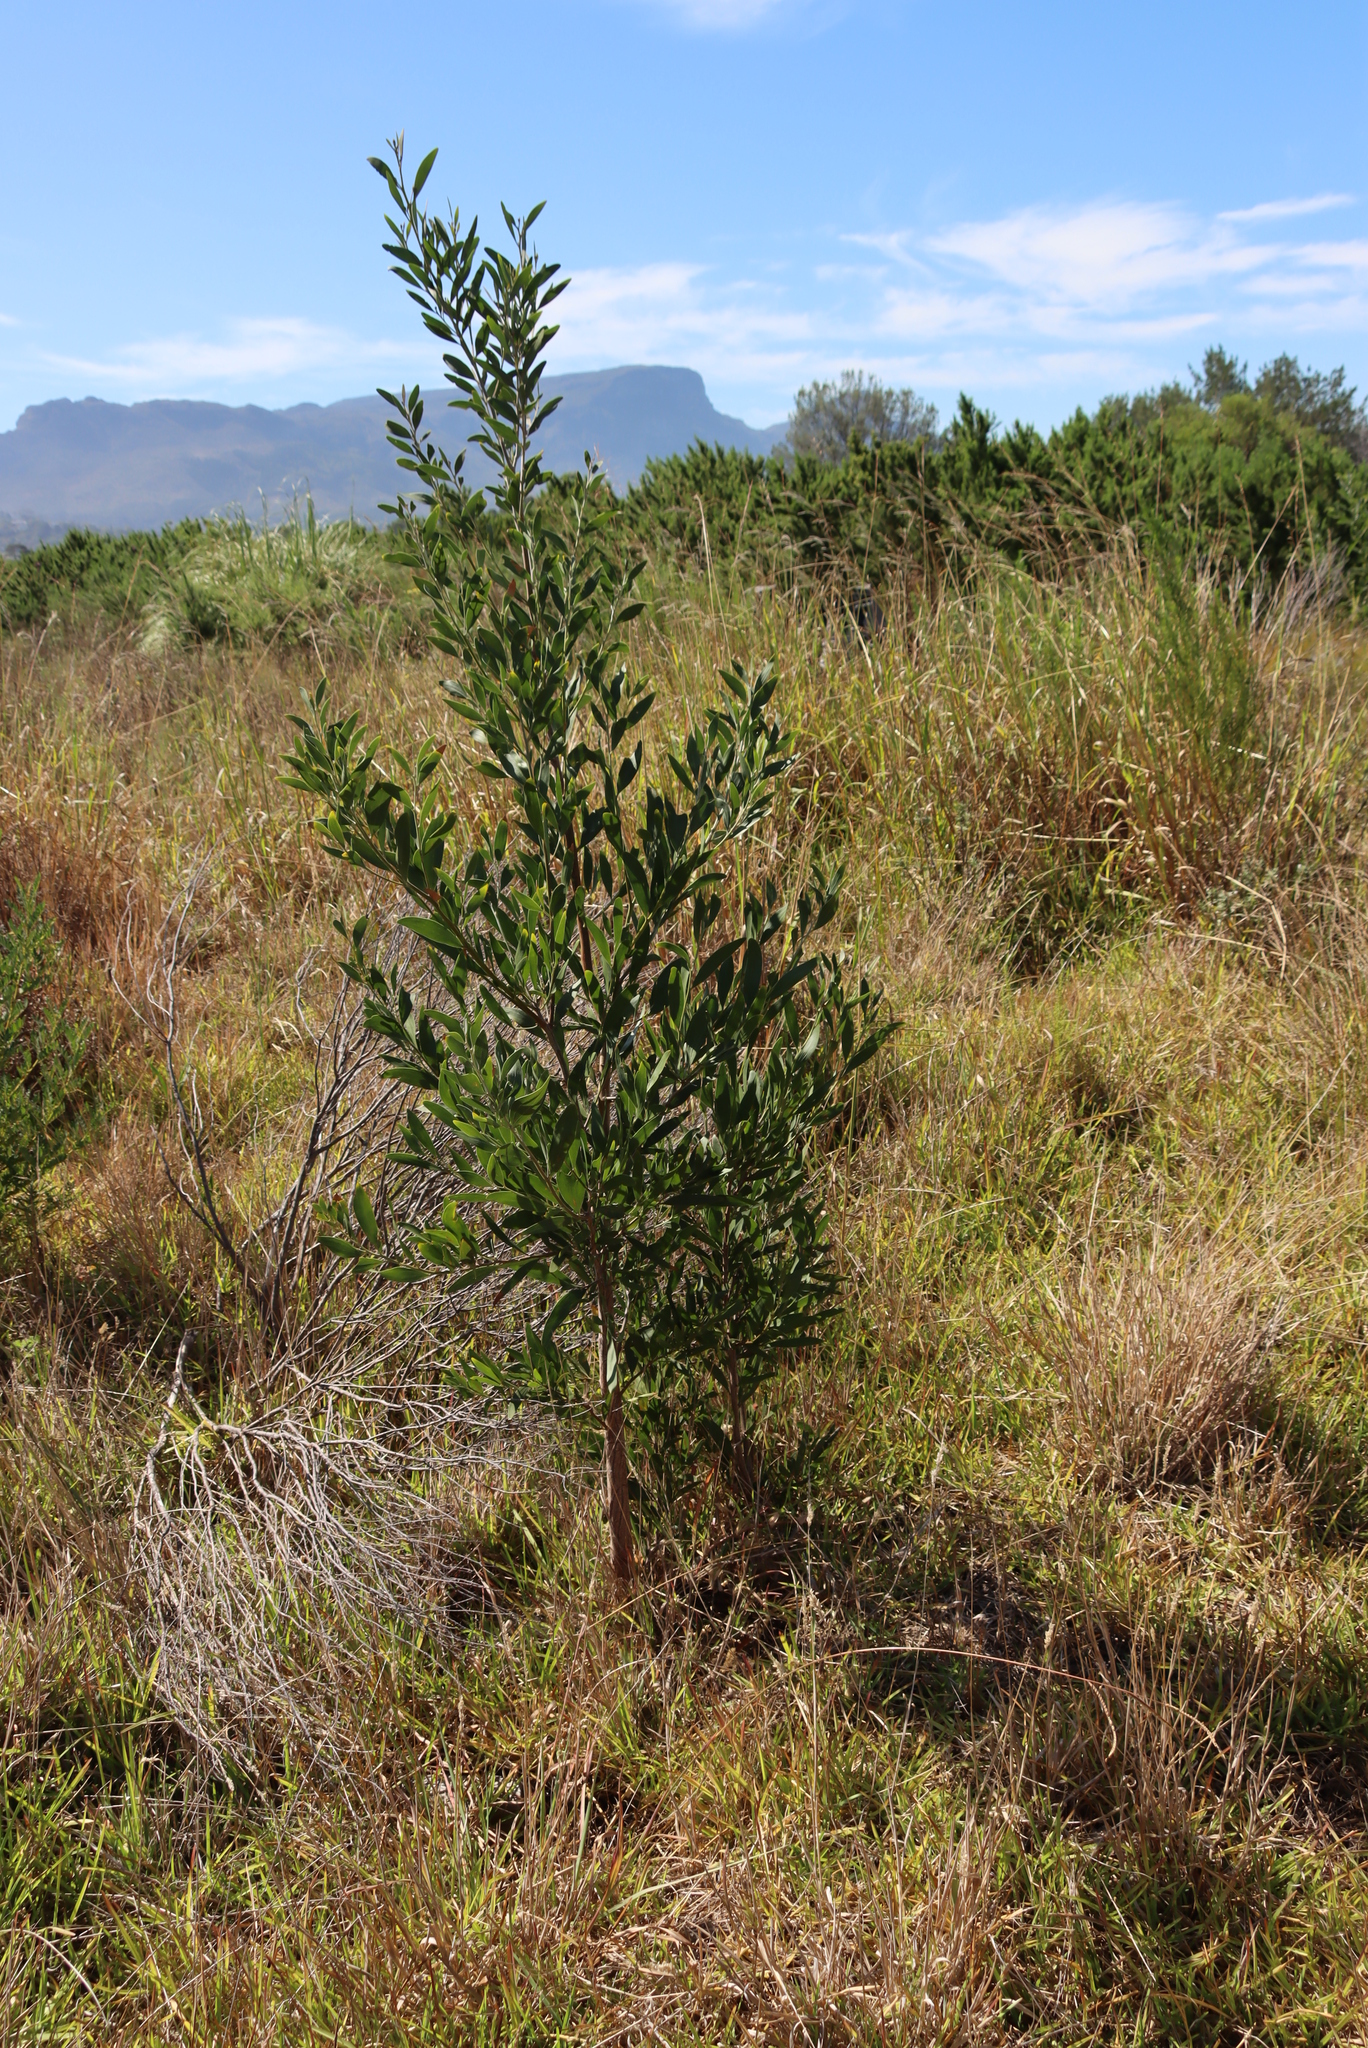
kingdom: Plantae
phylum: Tracheophyta
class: Magnoliopsida
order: Fabales
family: Fabaceae
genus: Acacia
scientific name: Acacia melanoxylon
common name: Blackwood
